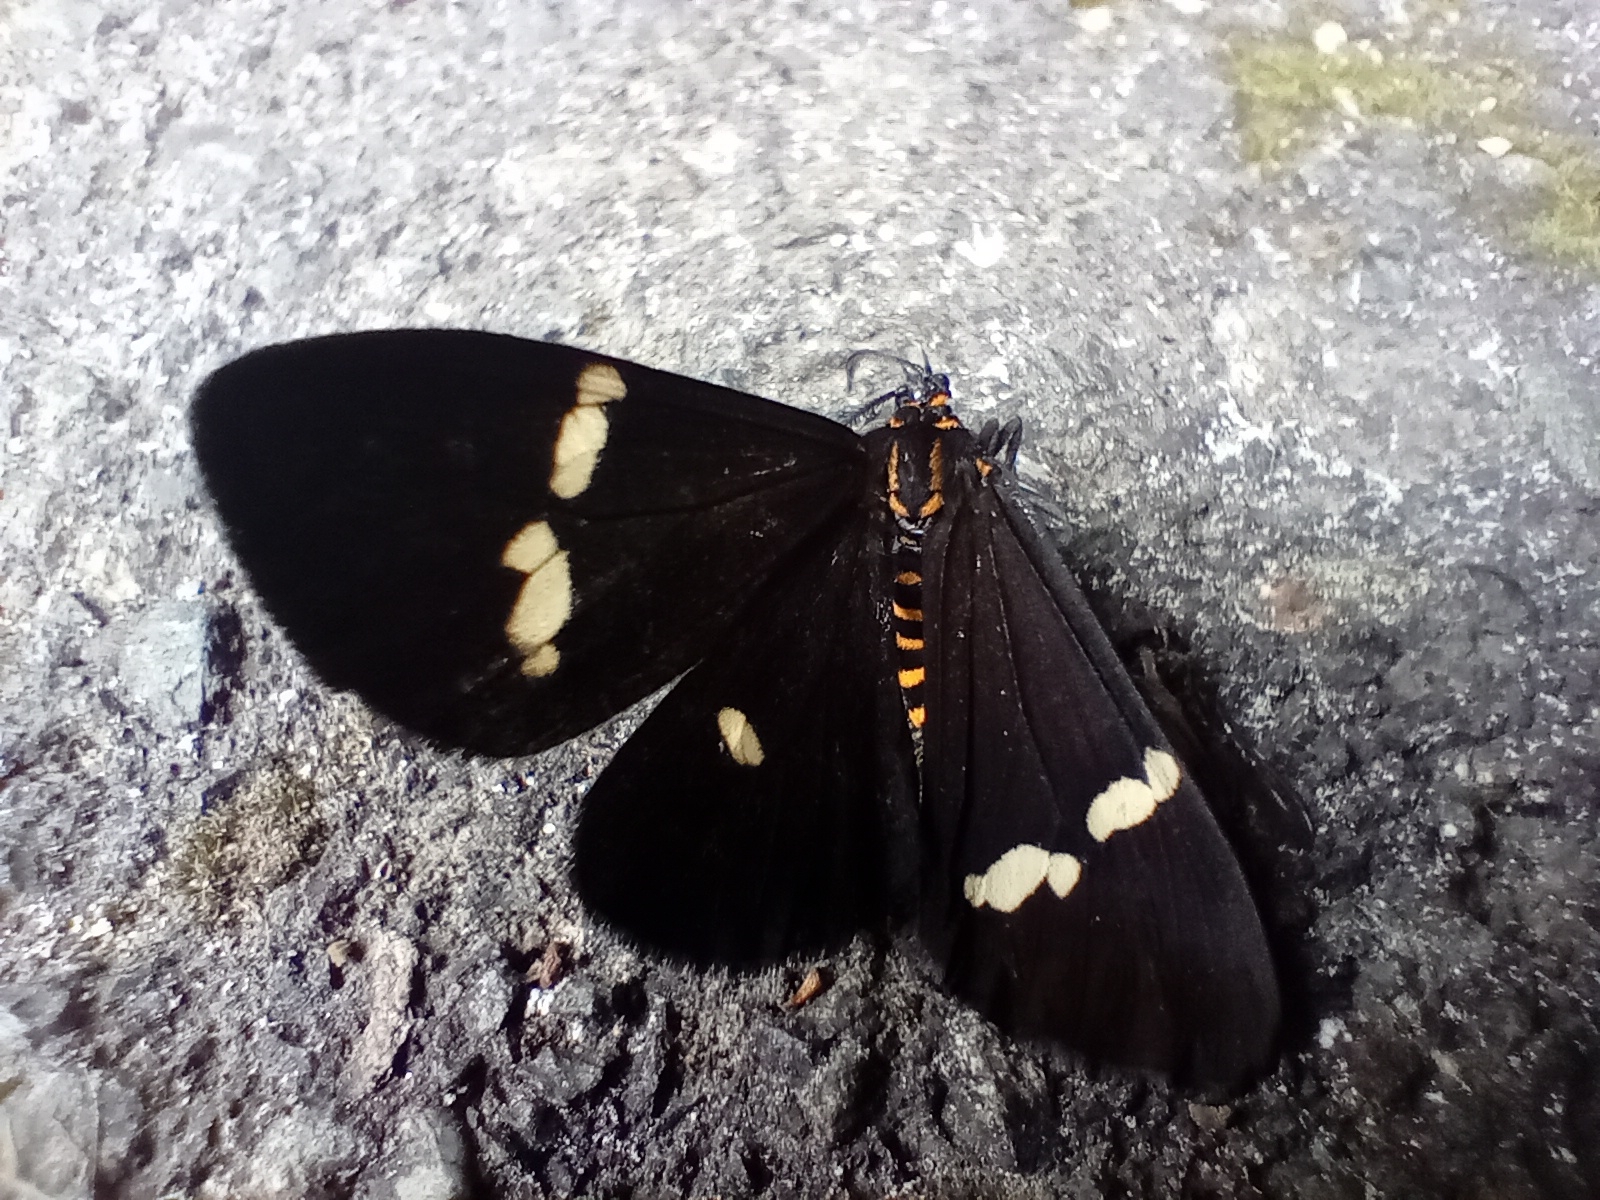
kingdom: Animalia
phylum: Arthropoda
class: Insecta
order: Lepidoptera
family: Erebidae
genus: Nyctemera
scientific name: Nyctemera annulatum
